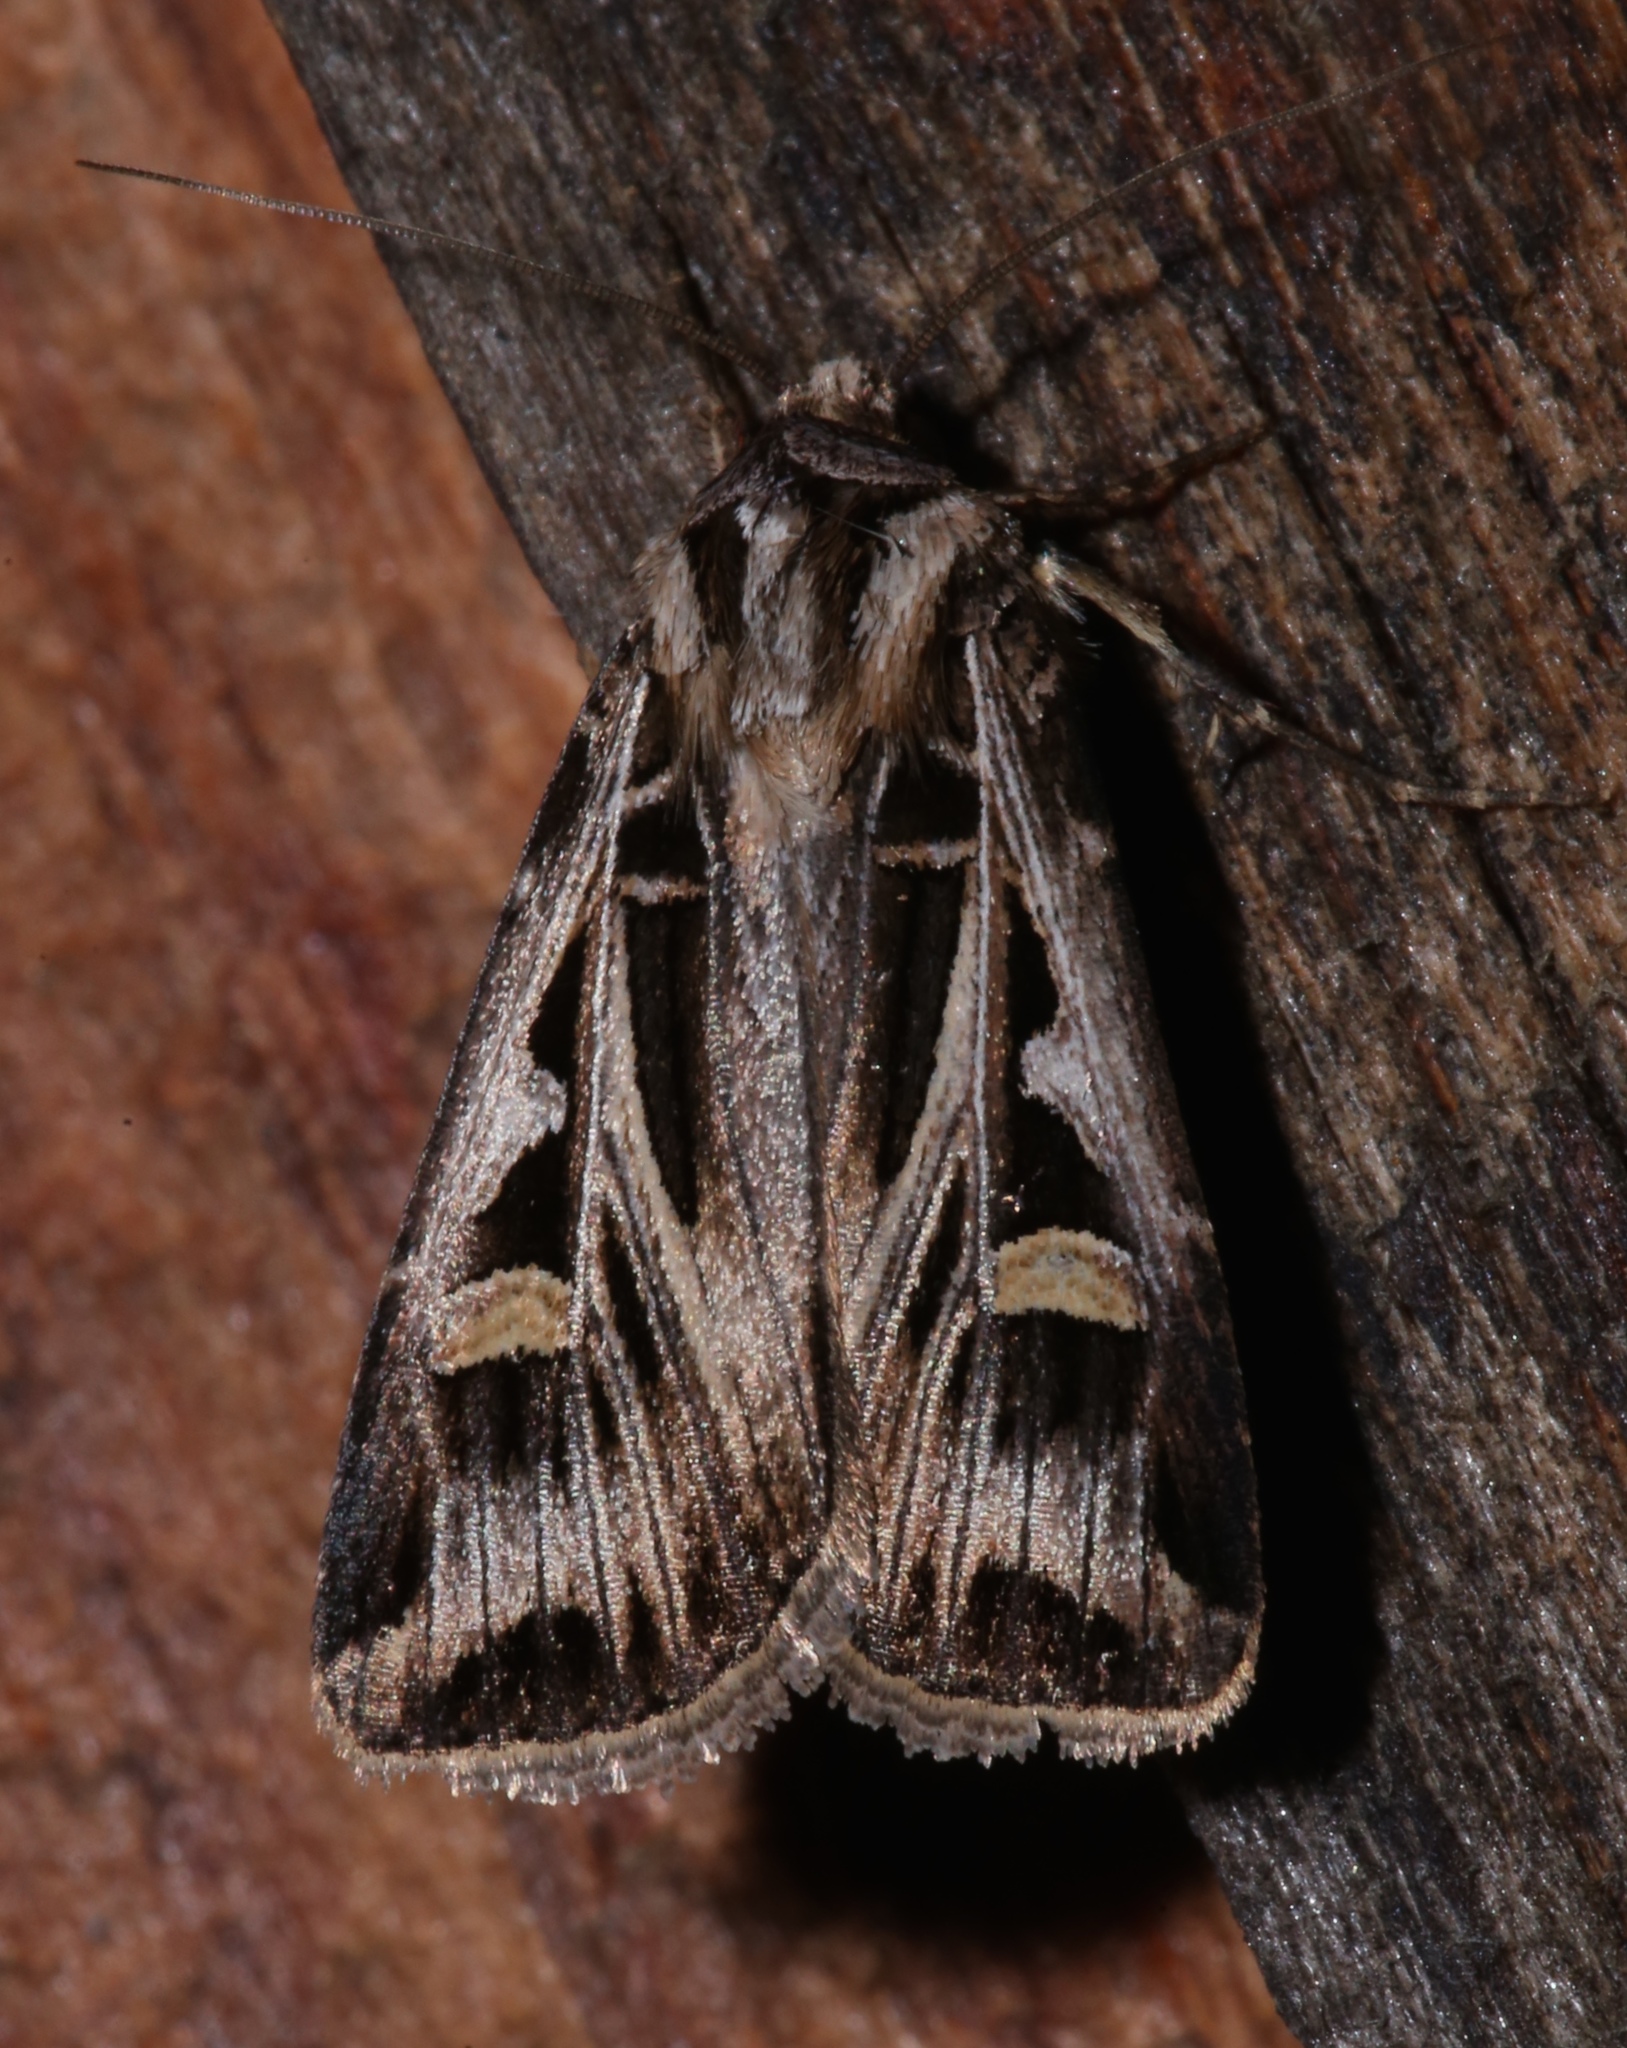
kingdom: Animalia
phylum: Arthropoda
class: Insecta
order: Lepidoptera
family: Noctuidae
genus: Feltia
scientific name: Feltia jaculifera
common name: Dingy cutworm moth
